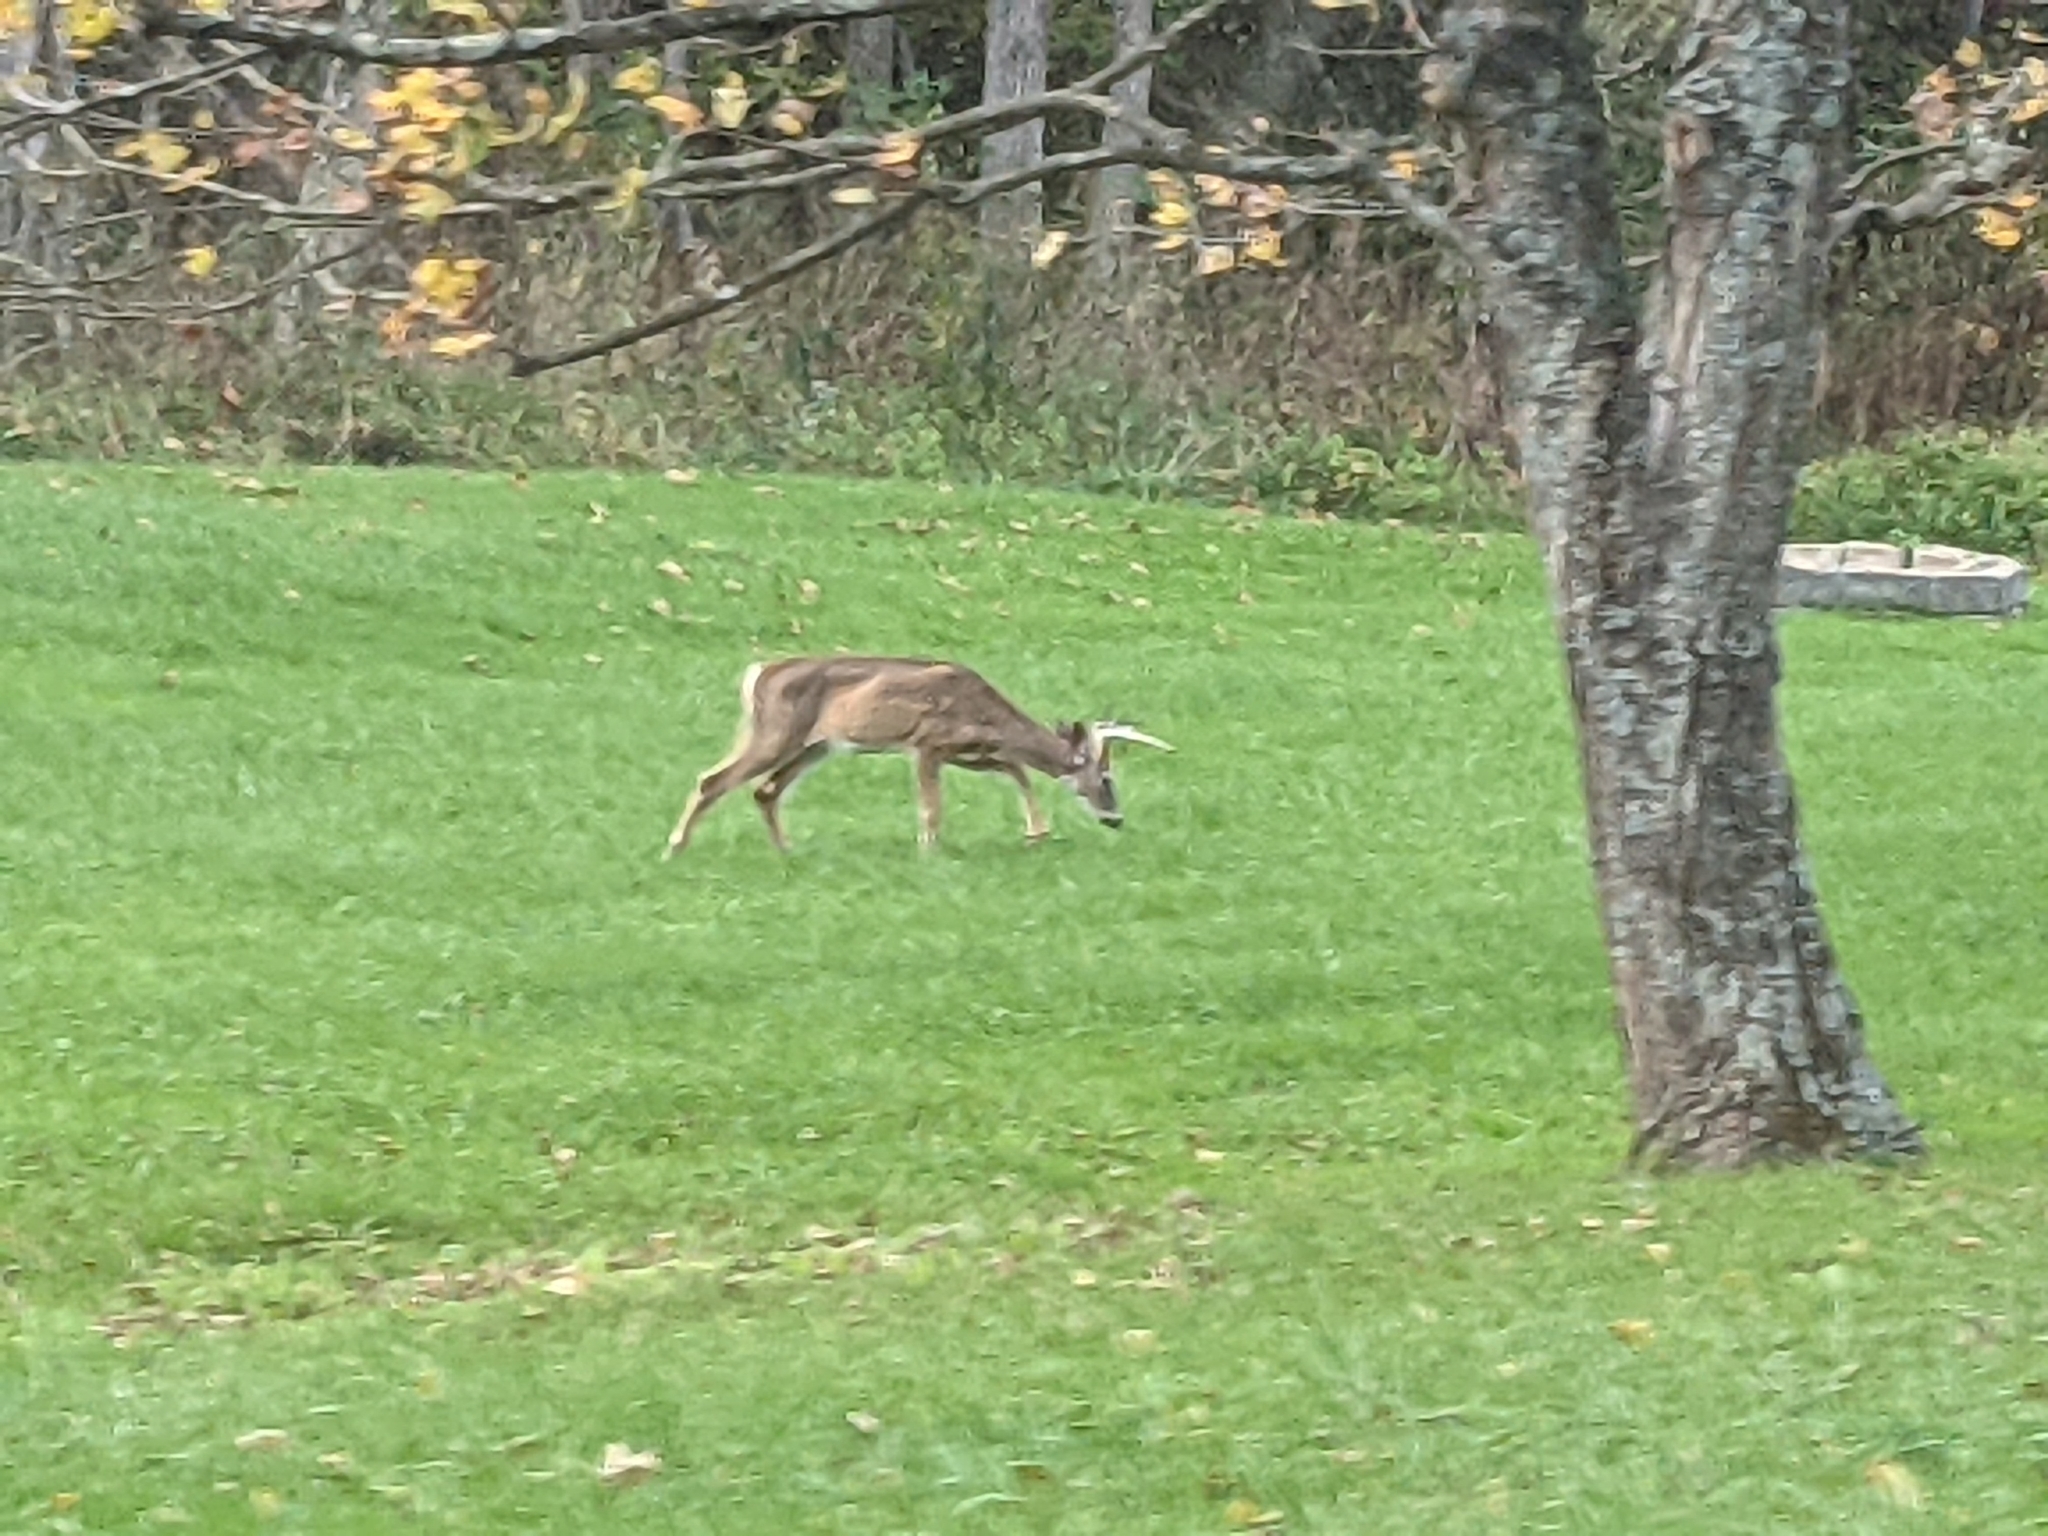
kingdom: Animalia
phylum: Chordata
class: Mammalia
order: Artiodactyla
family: Cervidae
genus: Odocoileus
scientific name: Odocoileus virginianus
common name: White-tailed deer
